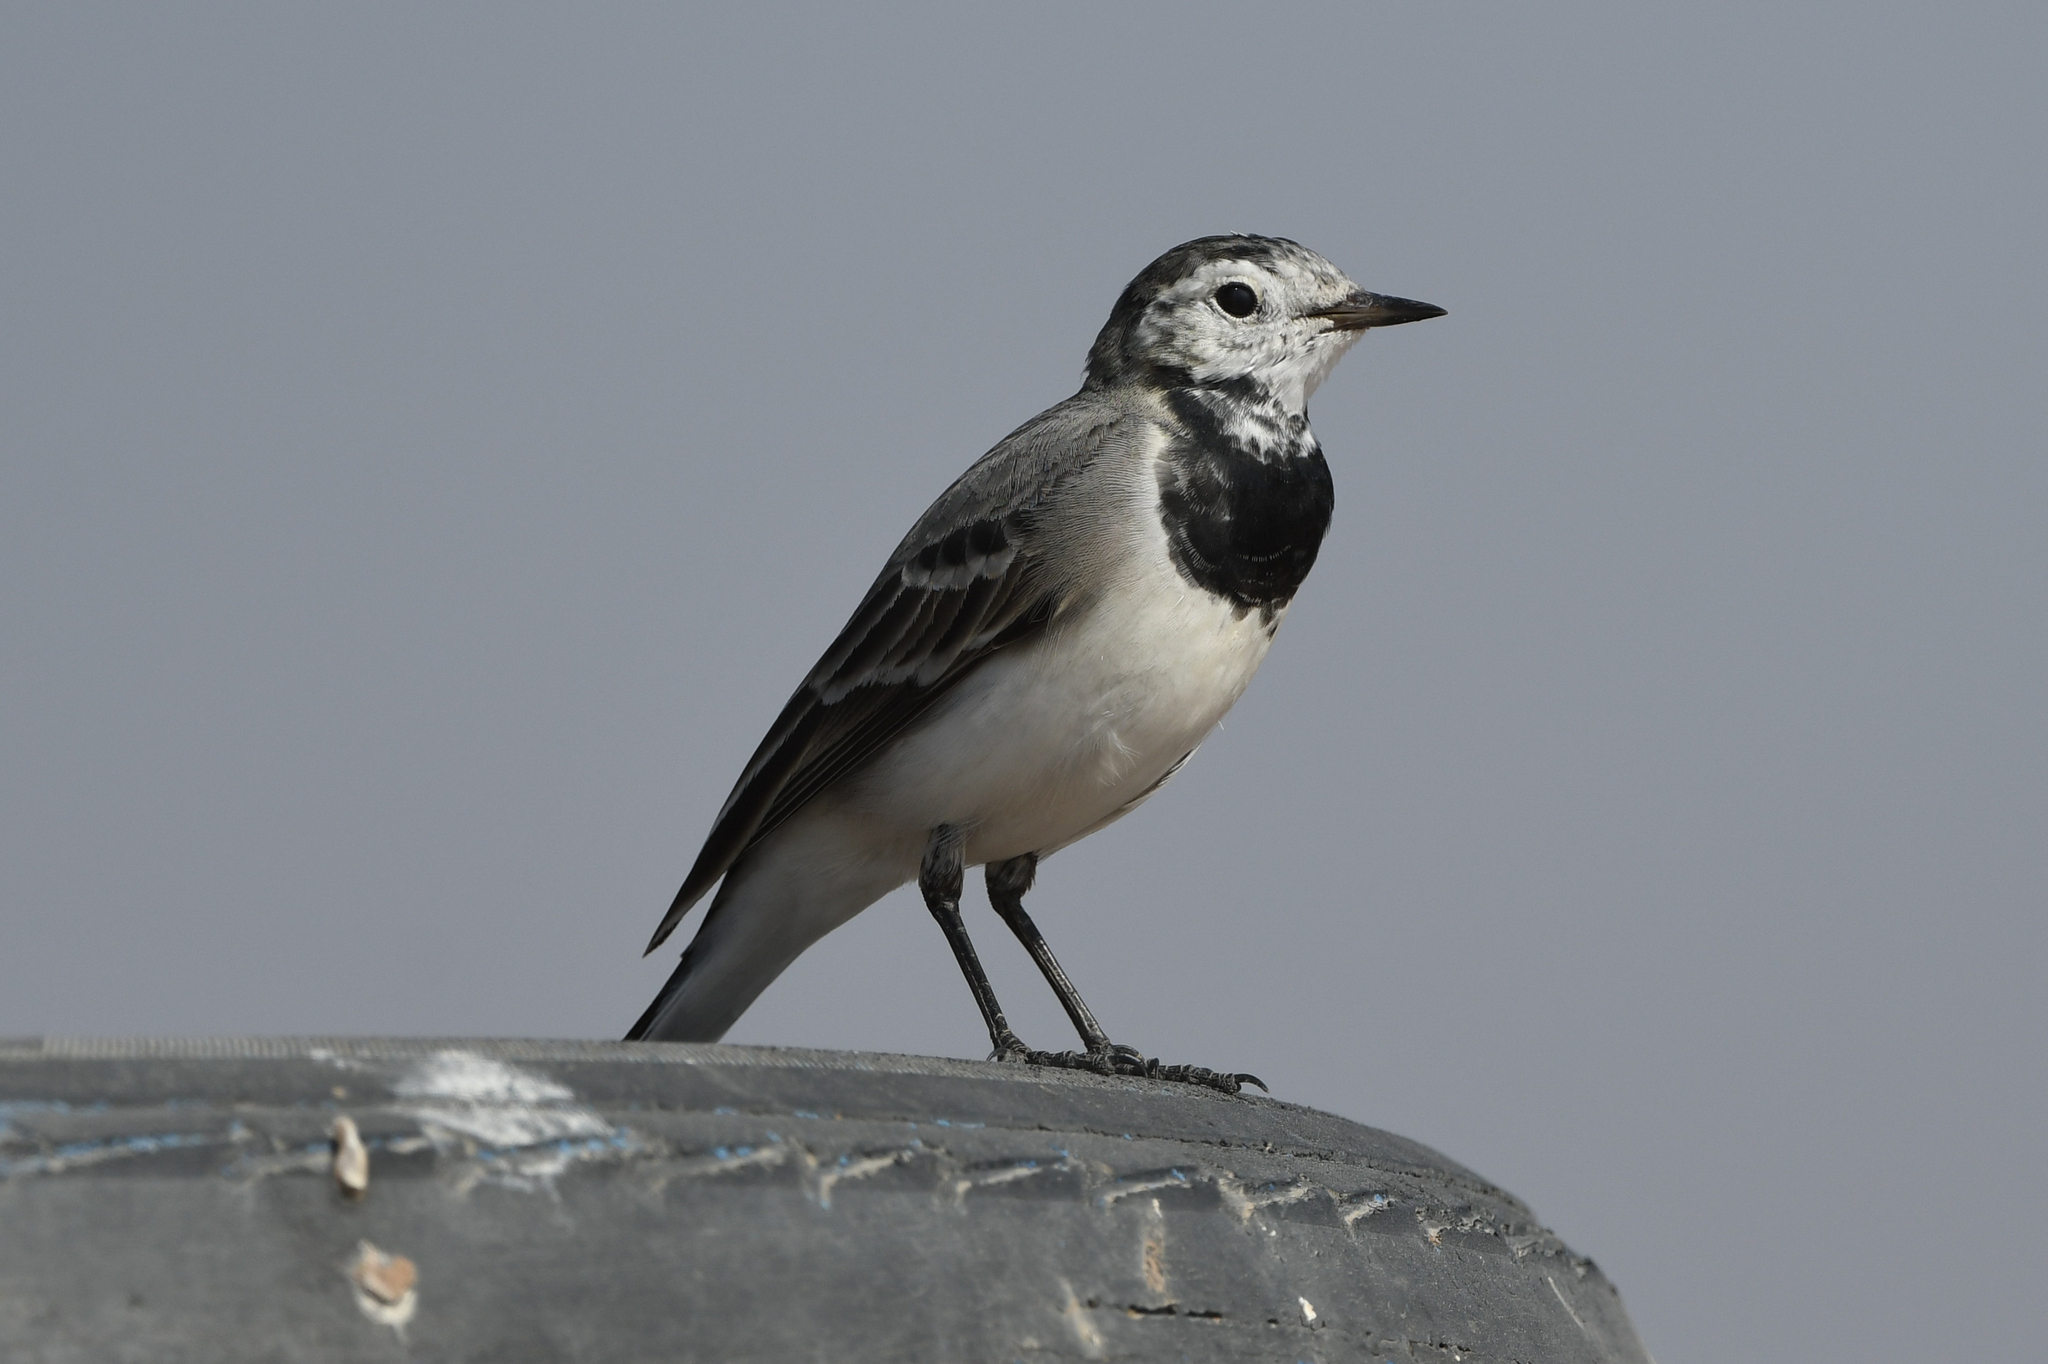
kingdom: Animalia
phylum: Chordata
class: Aves
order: Passeriformes
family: Motacillidae
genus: Motacilla
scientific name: Motacilla alba
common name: White wagtail
